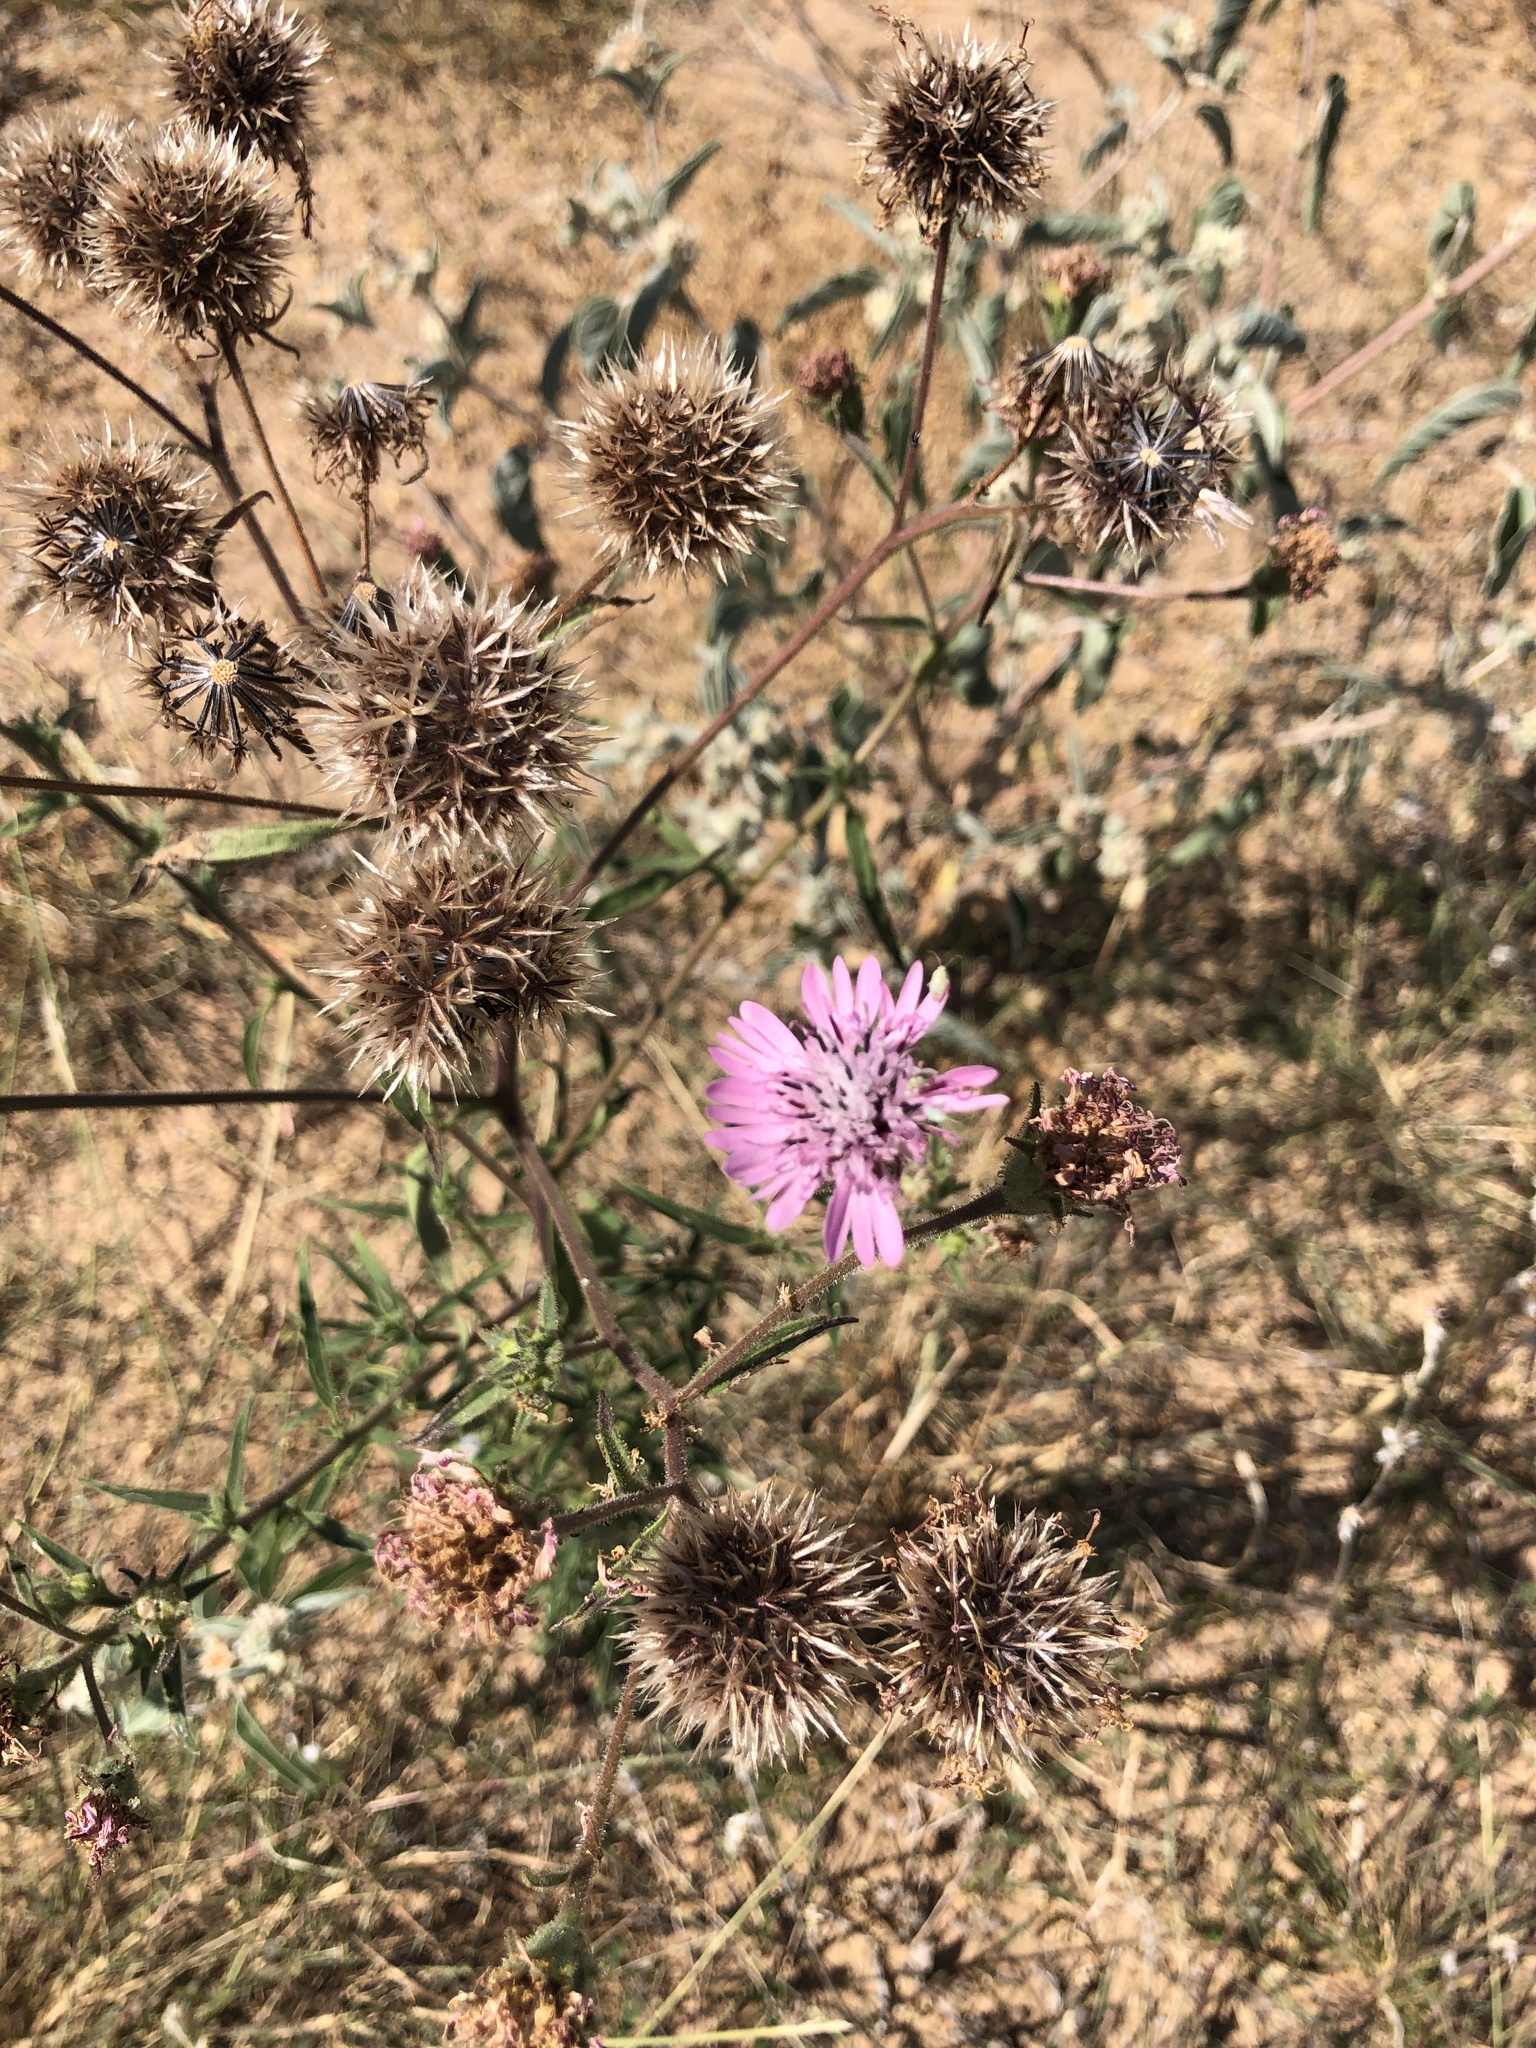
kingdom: Plantae
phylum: Tracheophyta
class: Magnoliopsida
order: Asterales
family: Asteraceae
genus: Palafoxia
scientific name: Palafoxia hookeriana
